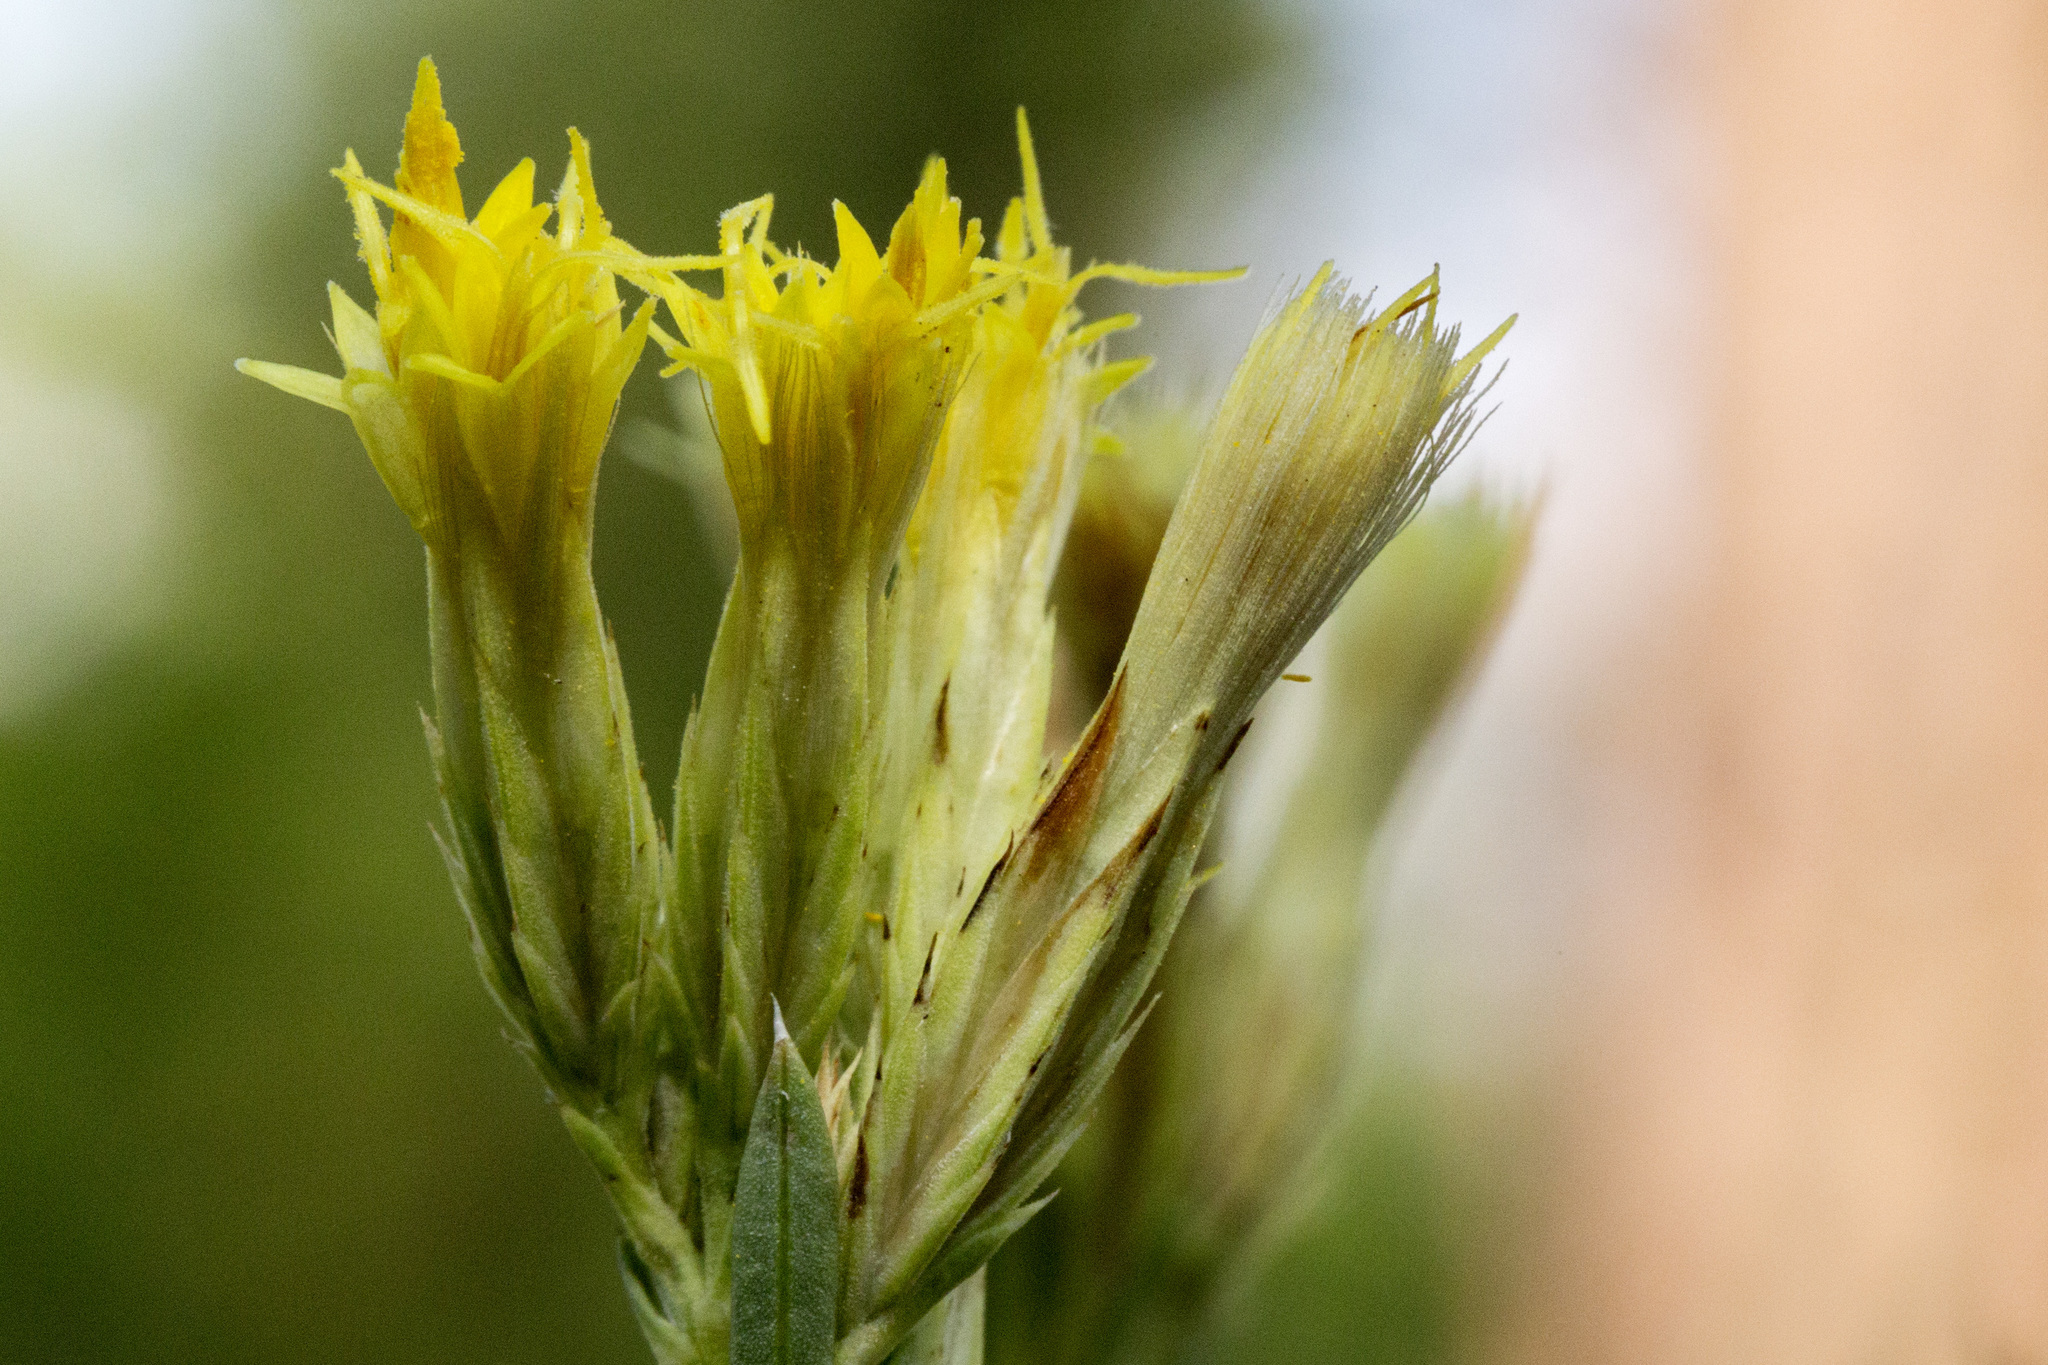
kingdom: Plantae
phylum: Tracheophyta
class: Magnoliopsida
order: Asterales
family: Asteraceae
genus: Chrysothamnus
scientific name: Chrysothamnus depressus
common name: Long-flower rabbitbrush
